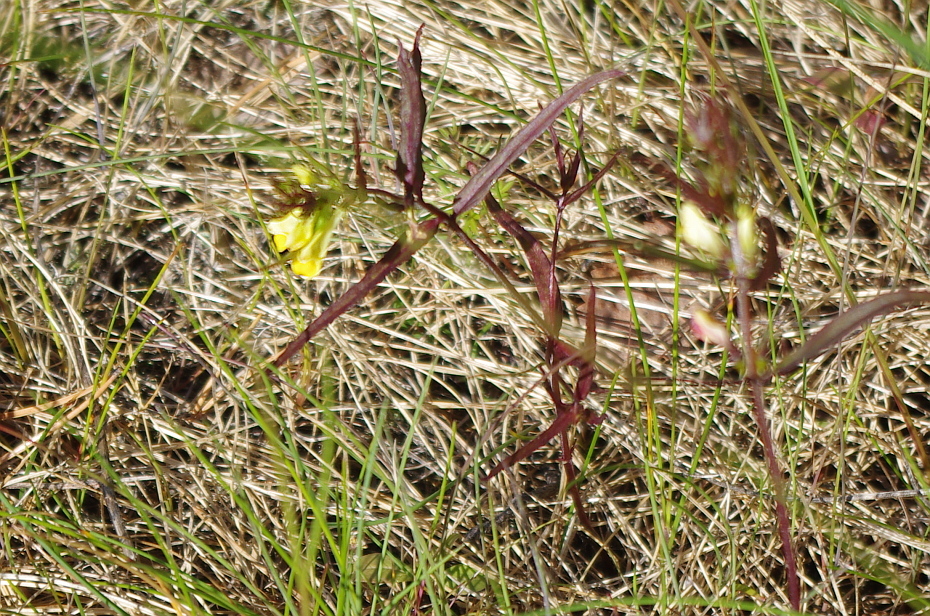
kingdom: Plantae
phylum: Tracheophyta
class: Magnoliopsida
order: Lamiales
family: Orobanchaceae
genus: Melampyrum
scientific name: Melampyrum pratense
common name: Common cow-wheat
